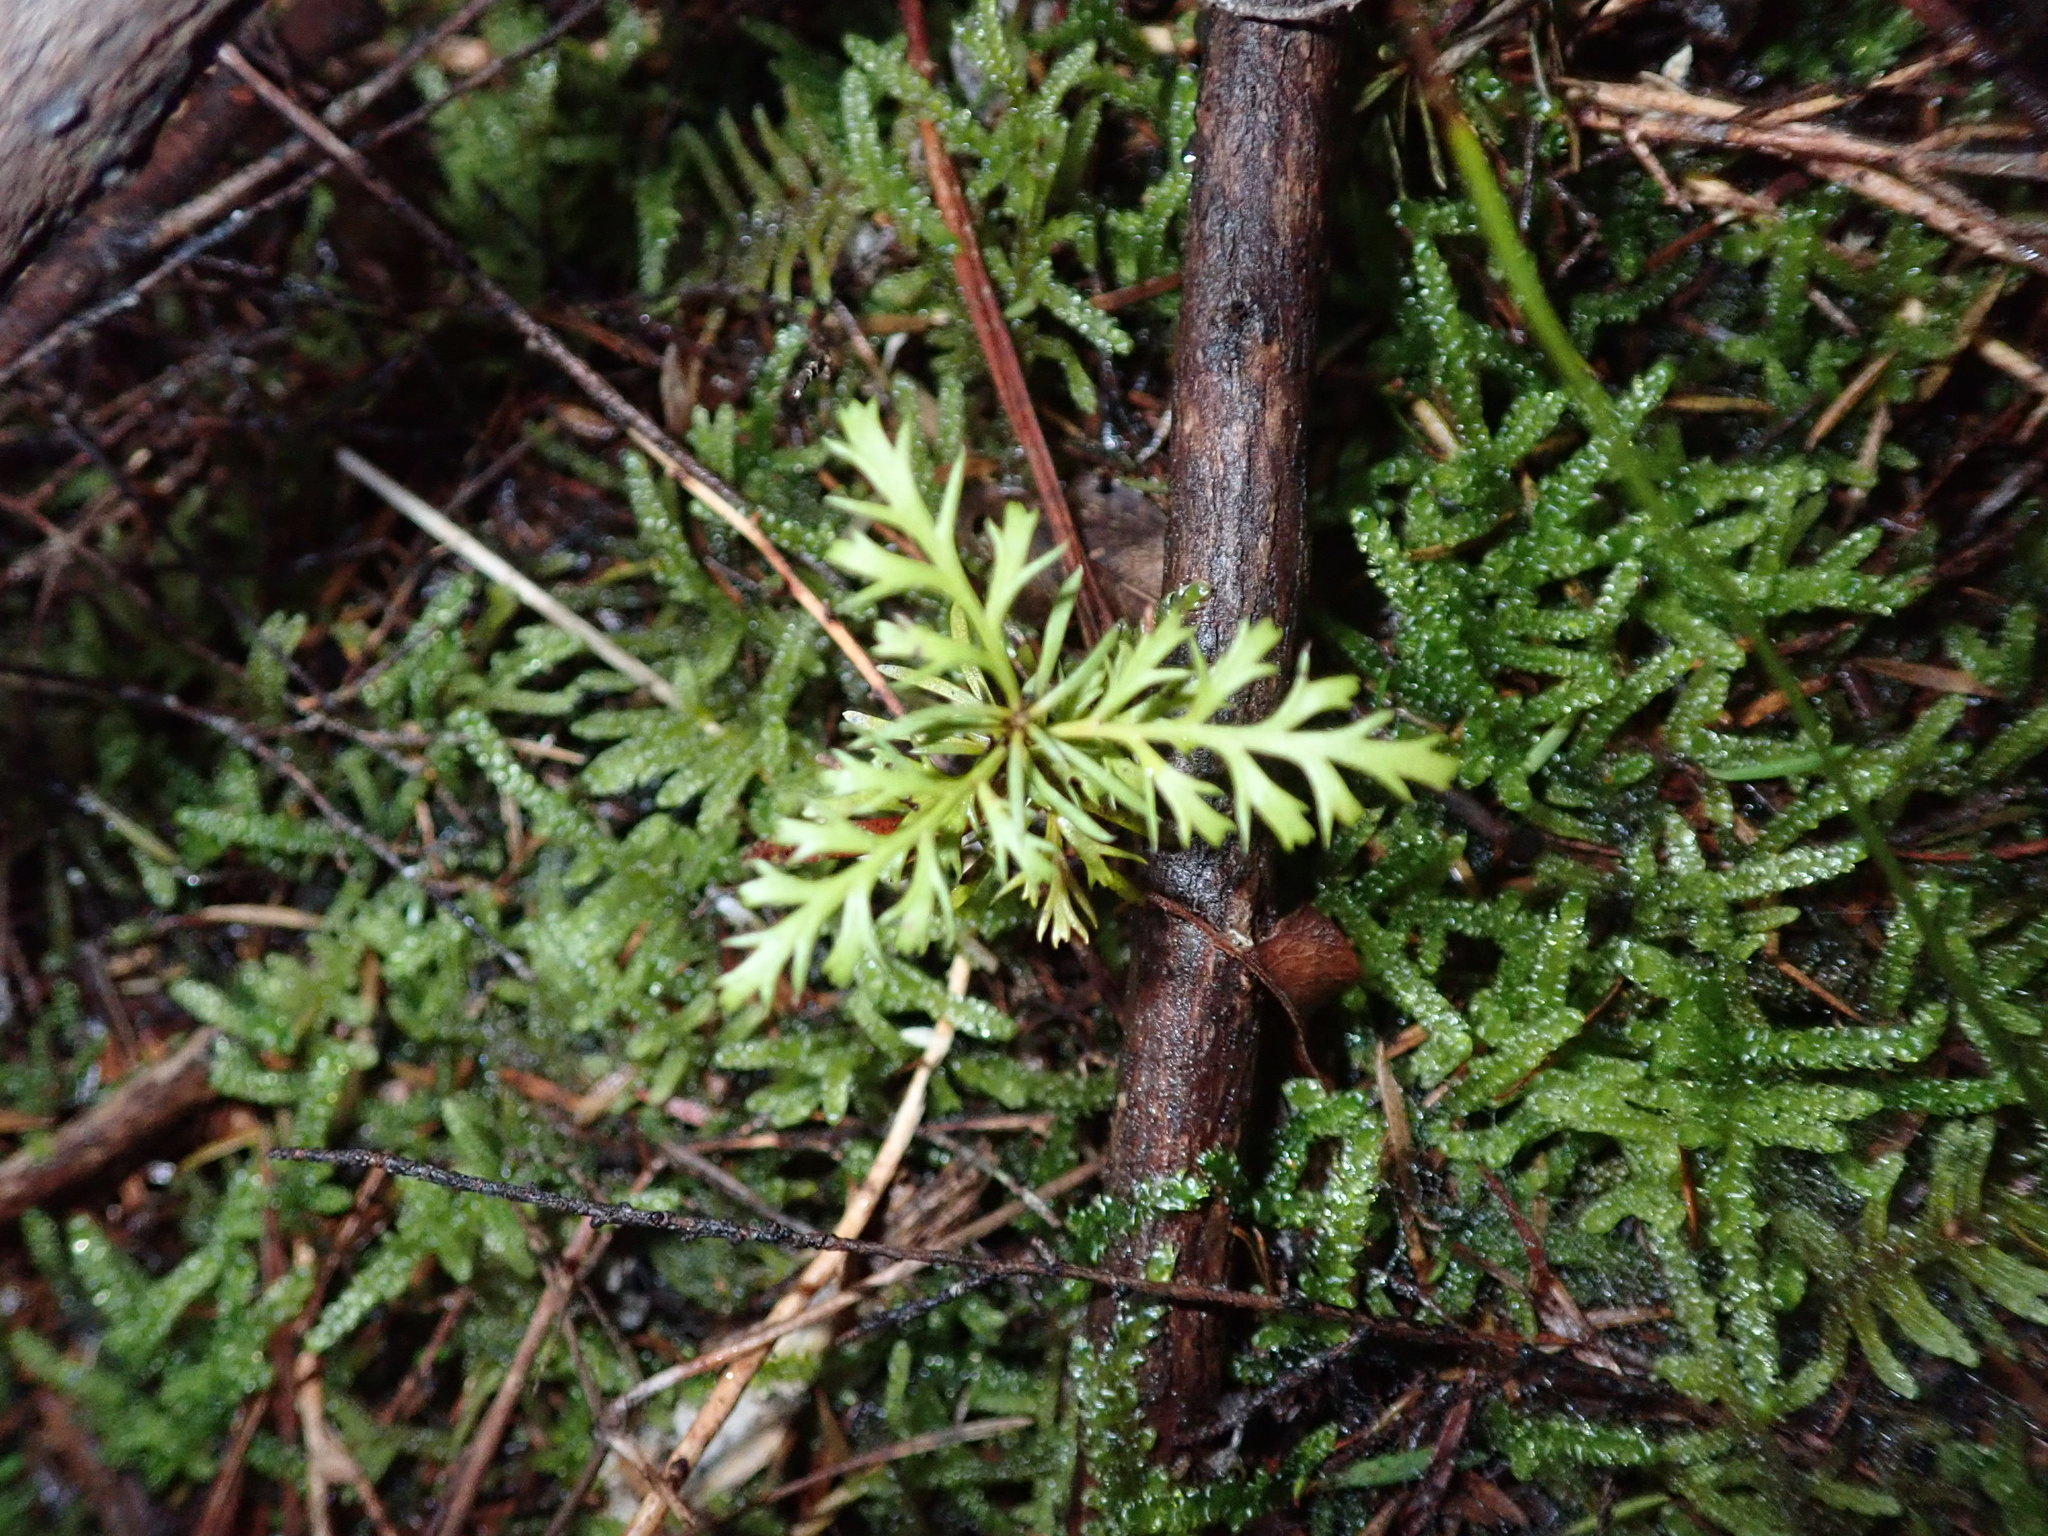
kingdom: Plantae
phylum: Tracheophyta
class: Pinopsida
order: Pinales
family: Phyllocladaceae
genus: Phyllocladus
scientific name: Phyllocladus trichomanoides
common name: Celery pine
